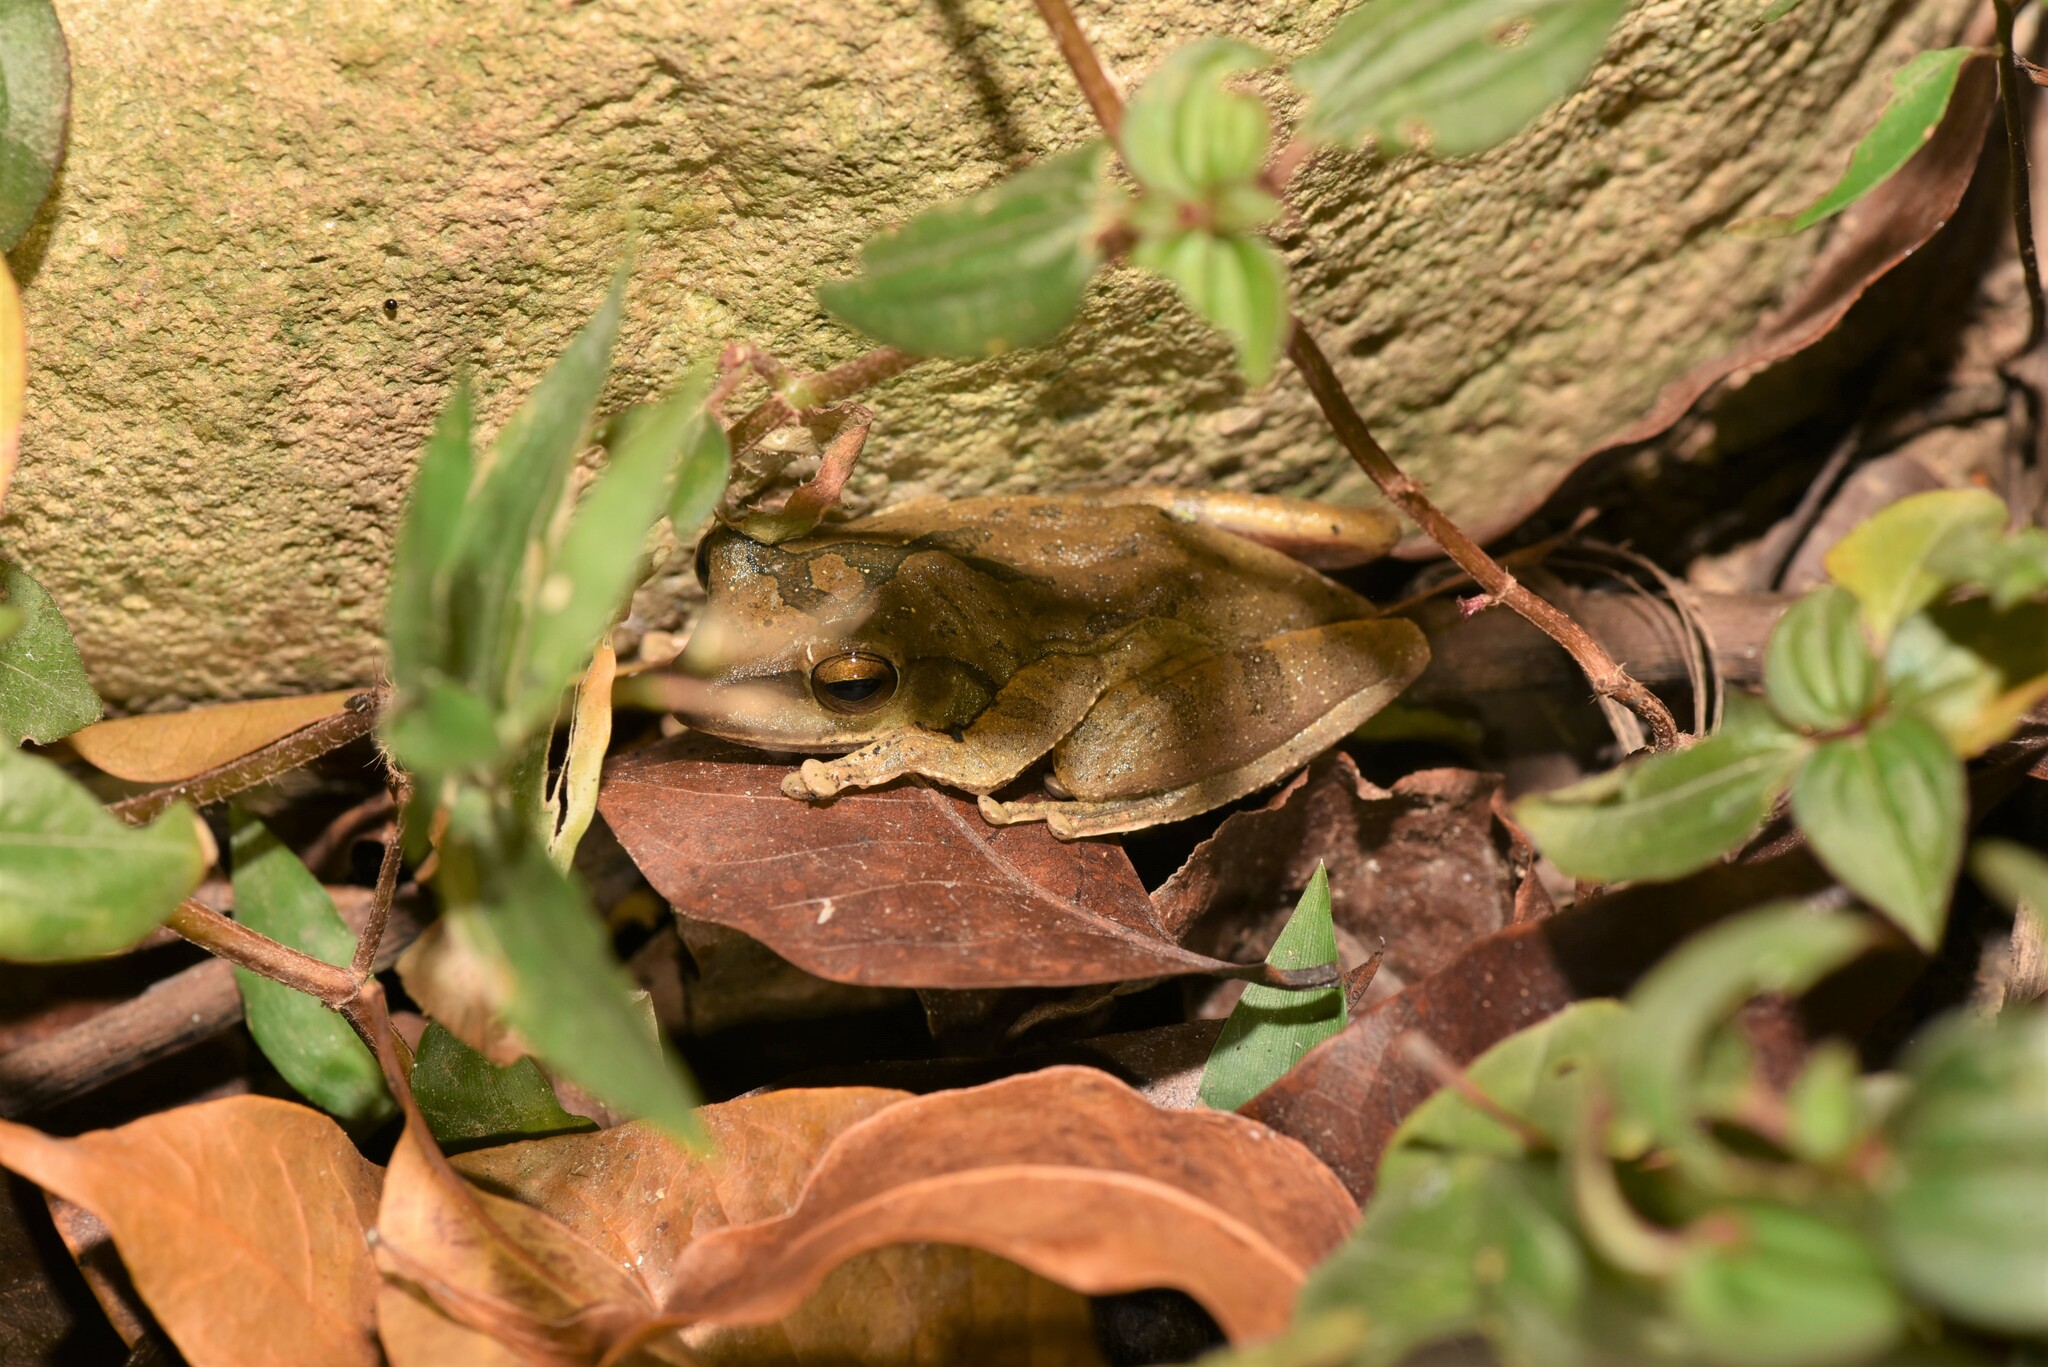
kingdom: Animalia
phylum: Chordata
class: Amphibia
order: Anura
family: Rhacophoridae
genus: Polypedates
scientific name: Polypedates megacephalus
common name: Hong kong whipping frog
